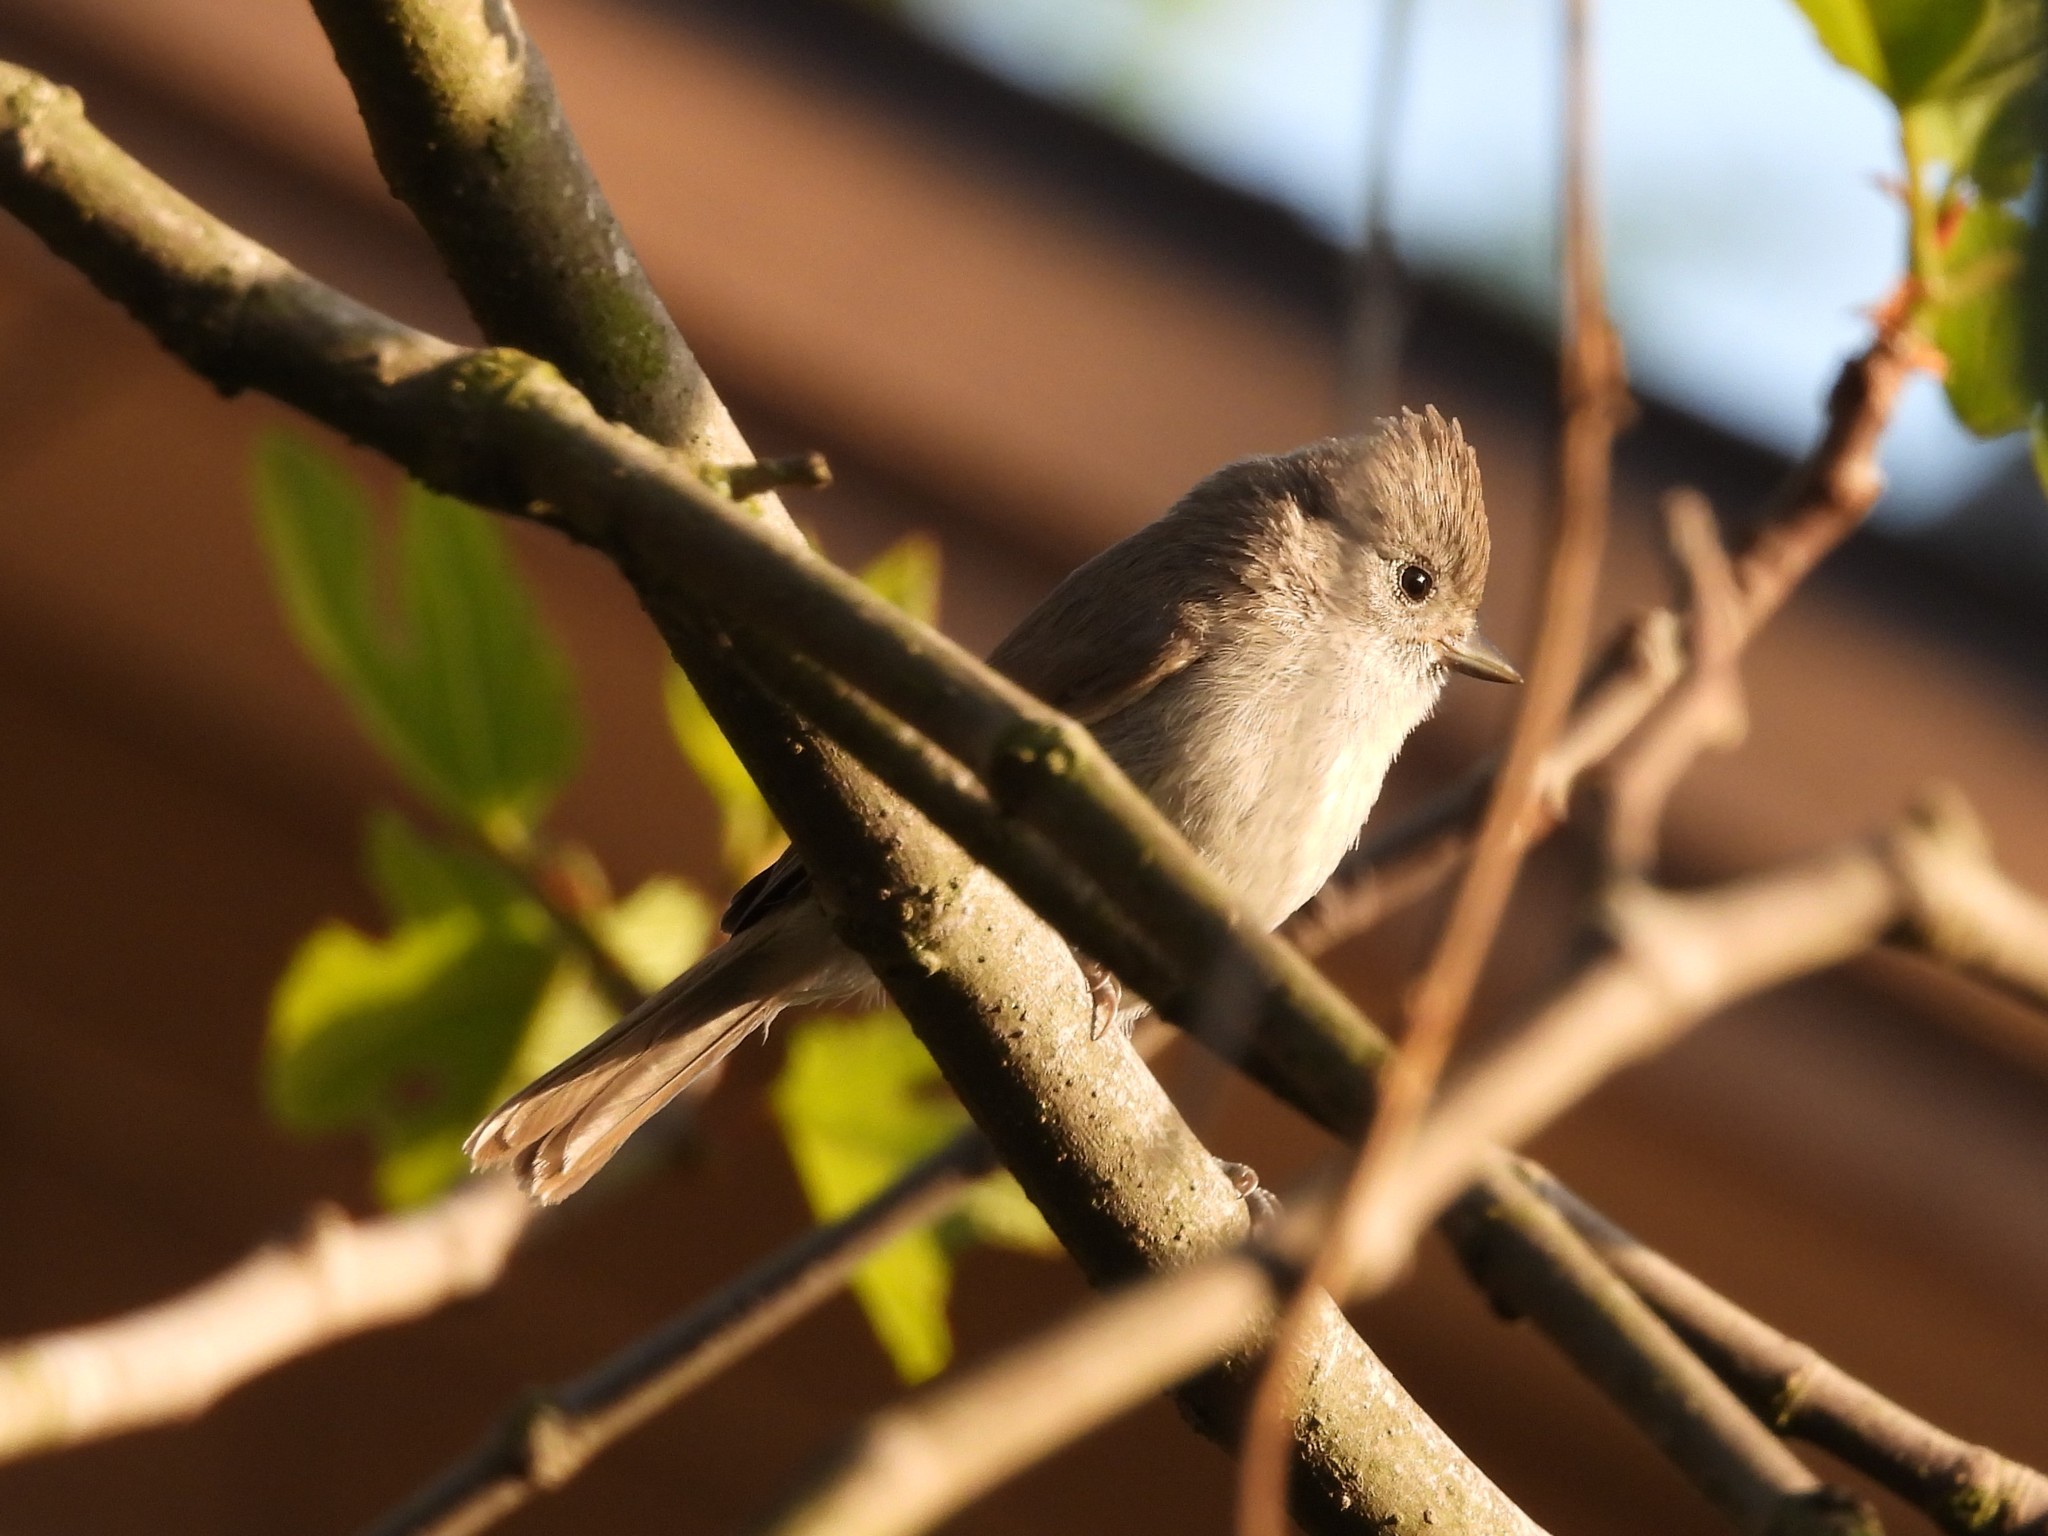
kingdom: Animalia
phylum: Chordata
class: Aves
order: Passeriformes
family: Paridae
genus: Baeolophus
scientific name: Baeolophus inornatus
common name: Oak titmouse
